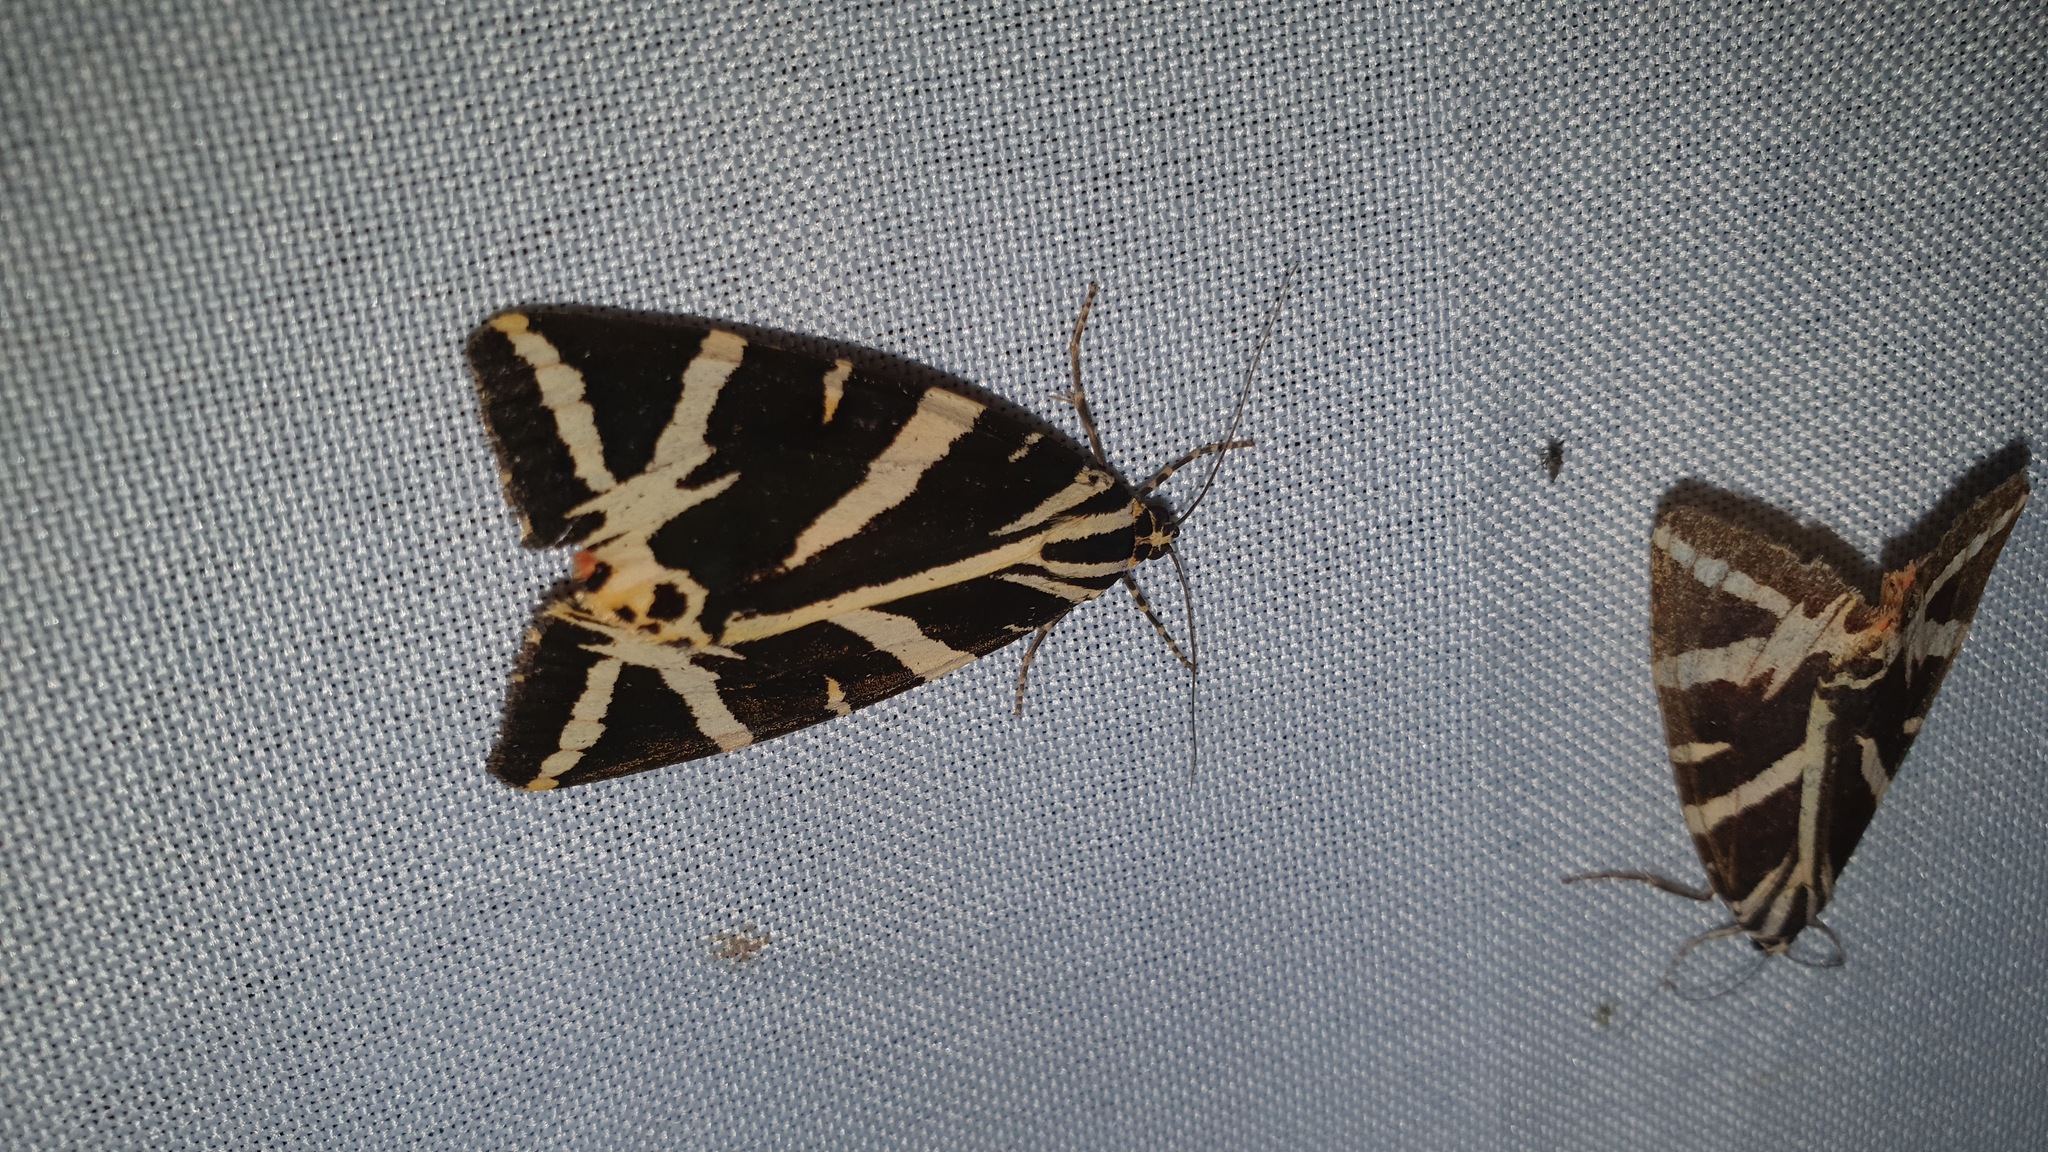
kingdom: Animalia
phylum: Arthropoda
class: Insecta
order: Lepidoptera
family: Erebidae
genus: Euplagia
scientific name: Euplagia quadripunctaria
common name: Jersey tiger
